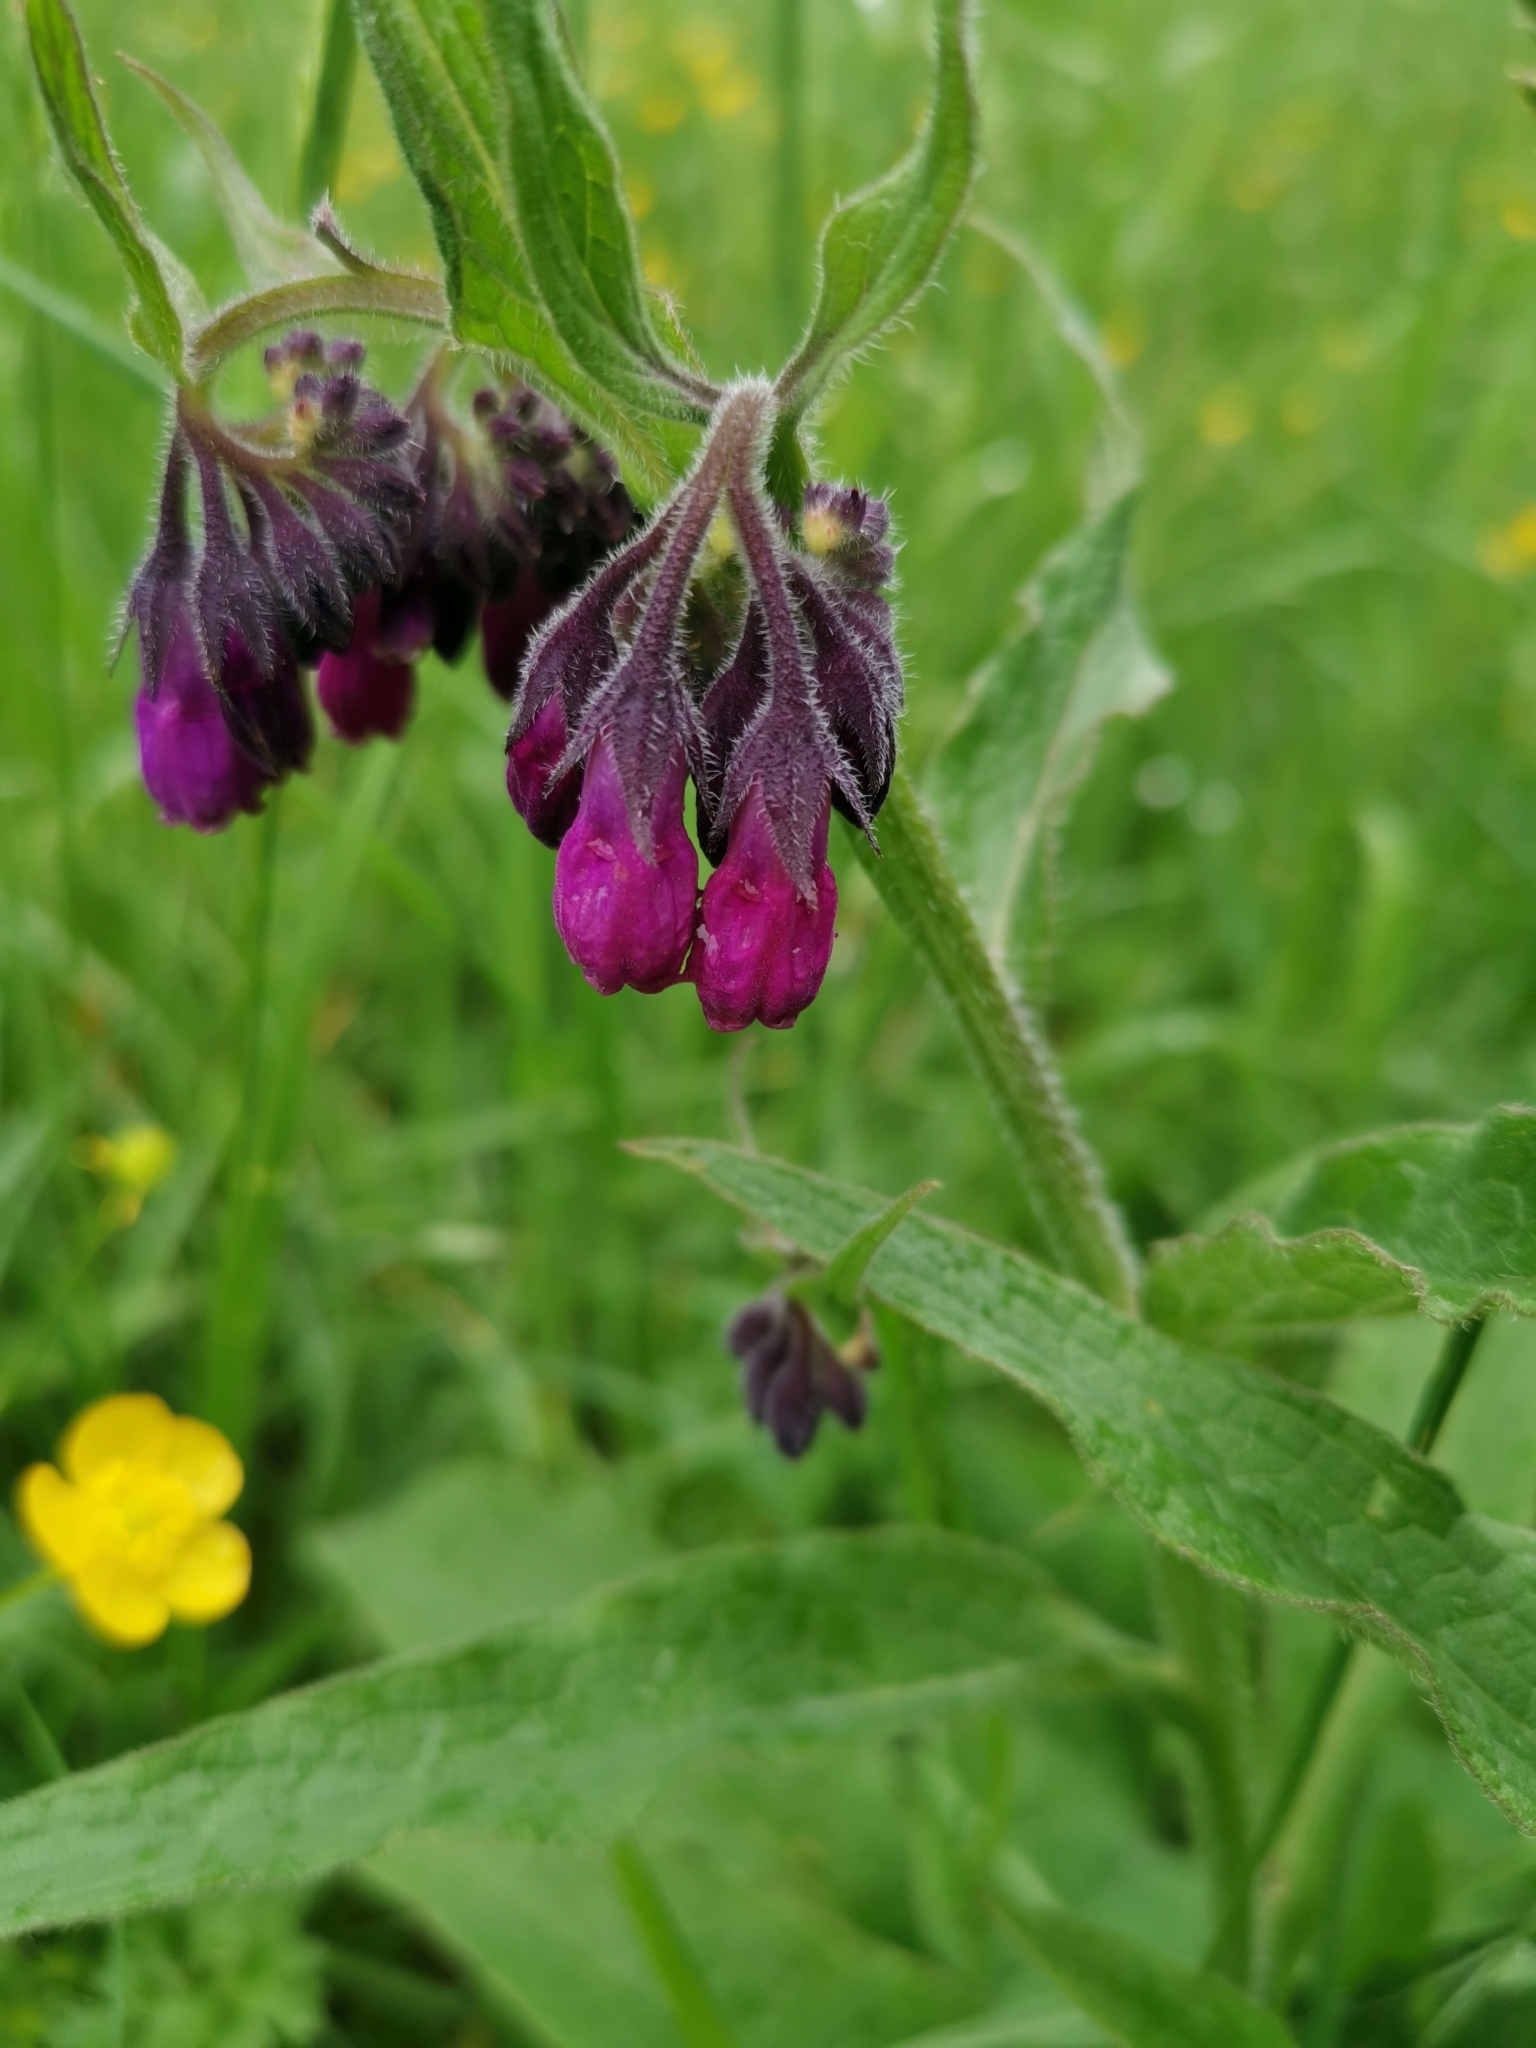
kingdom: Plantae
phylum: Tracheophyta
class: Magnoliopsida
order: Boraginales
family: Boraginaceae
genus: Symphytum
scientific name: Symphytum officinale
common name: Common comfrey
